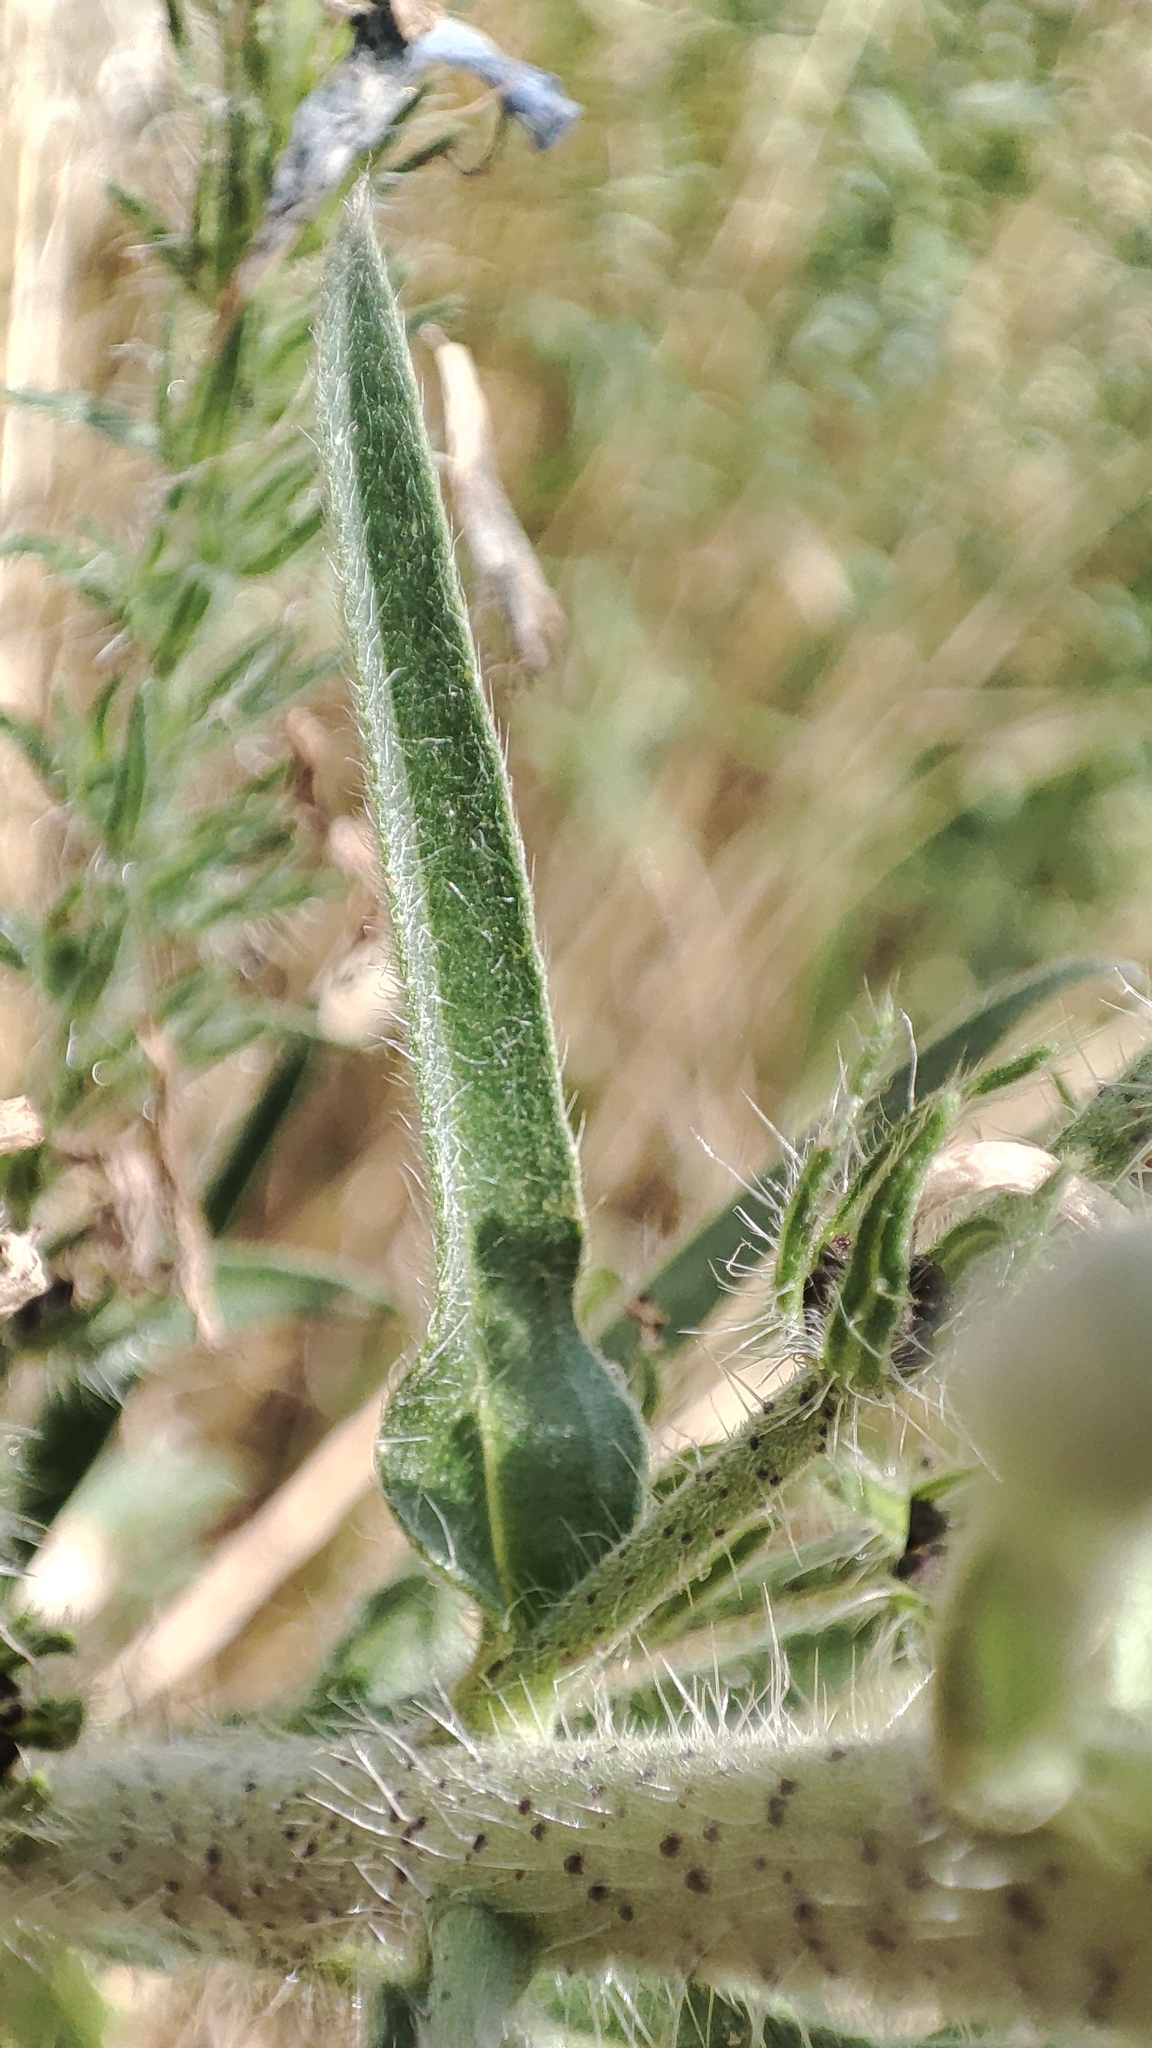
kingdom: Plantae
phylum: Tracheophyta
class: Magnoliopsida
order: Boraginales
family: Boraginaceae
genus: Echium
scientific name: Echium vulgare
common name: Common viper's bugloss
